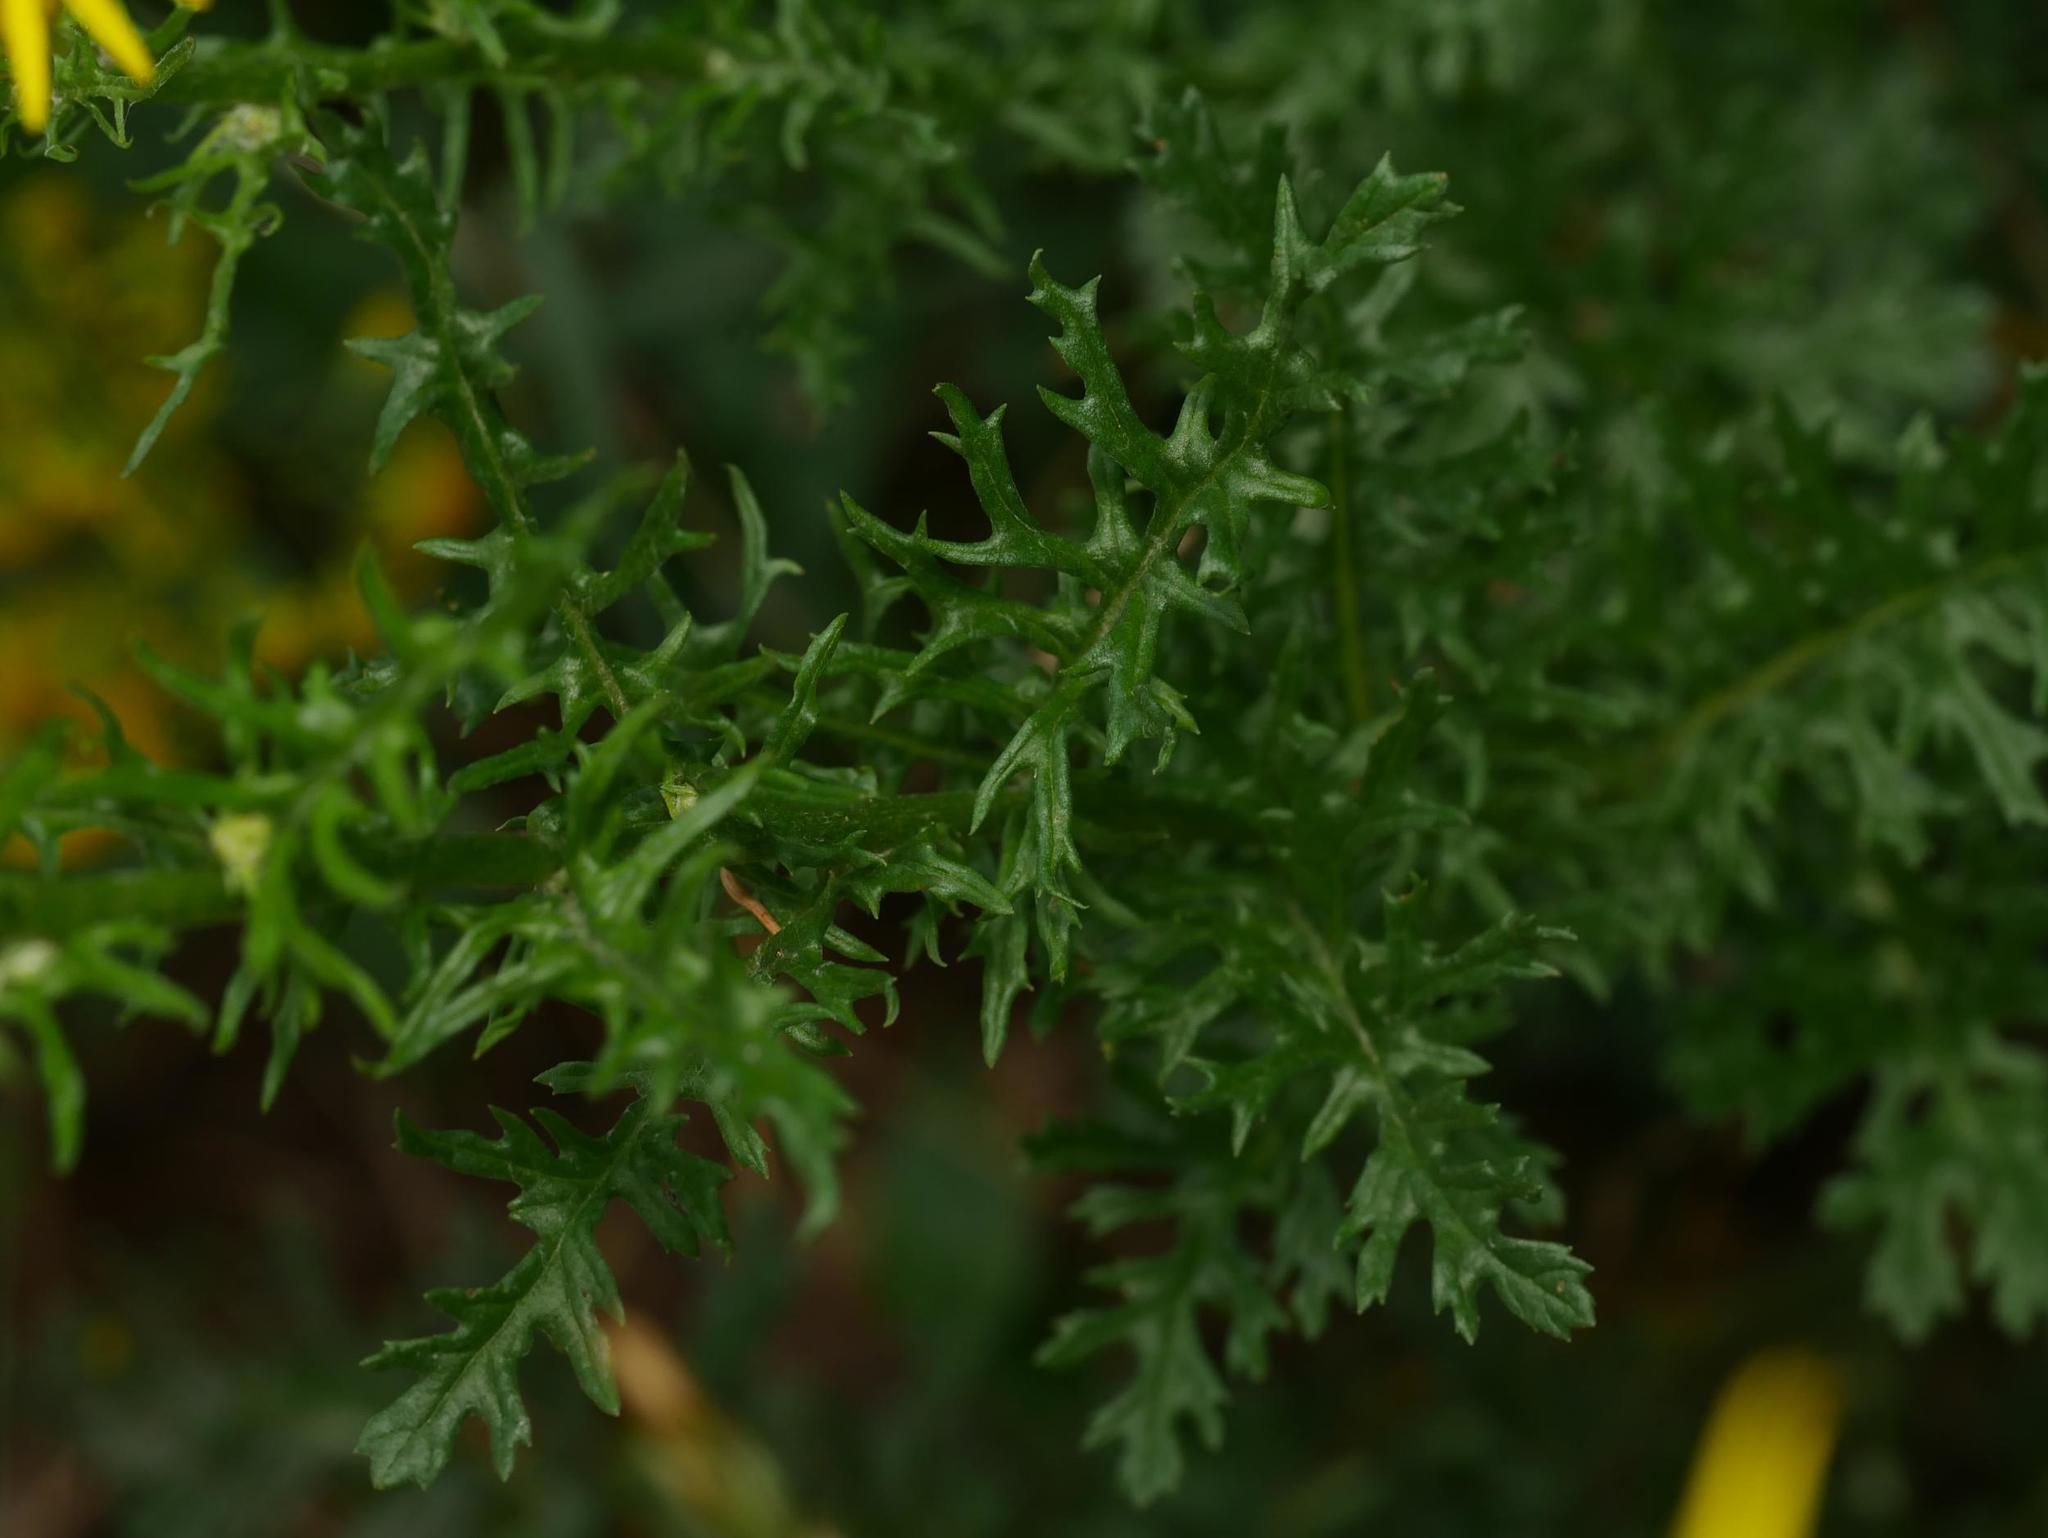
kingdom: Plantae
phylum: Tracheophyta
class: Magnoliopsida
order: Asterales
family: Asteraceae
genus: Jacobaea
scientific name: Jacobaea vulgaris
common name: Stinking willie
